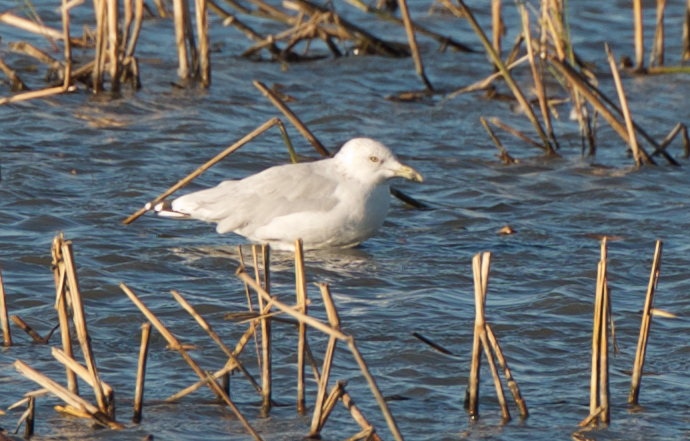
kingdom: Animalia
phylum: Chordata
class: Aves
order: Charadriiformes
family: Laridae
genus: Larus
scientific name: Larus delawarensis
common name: Ring-billed gull
